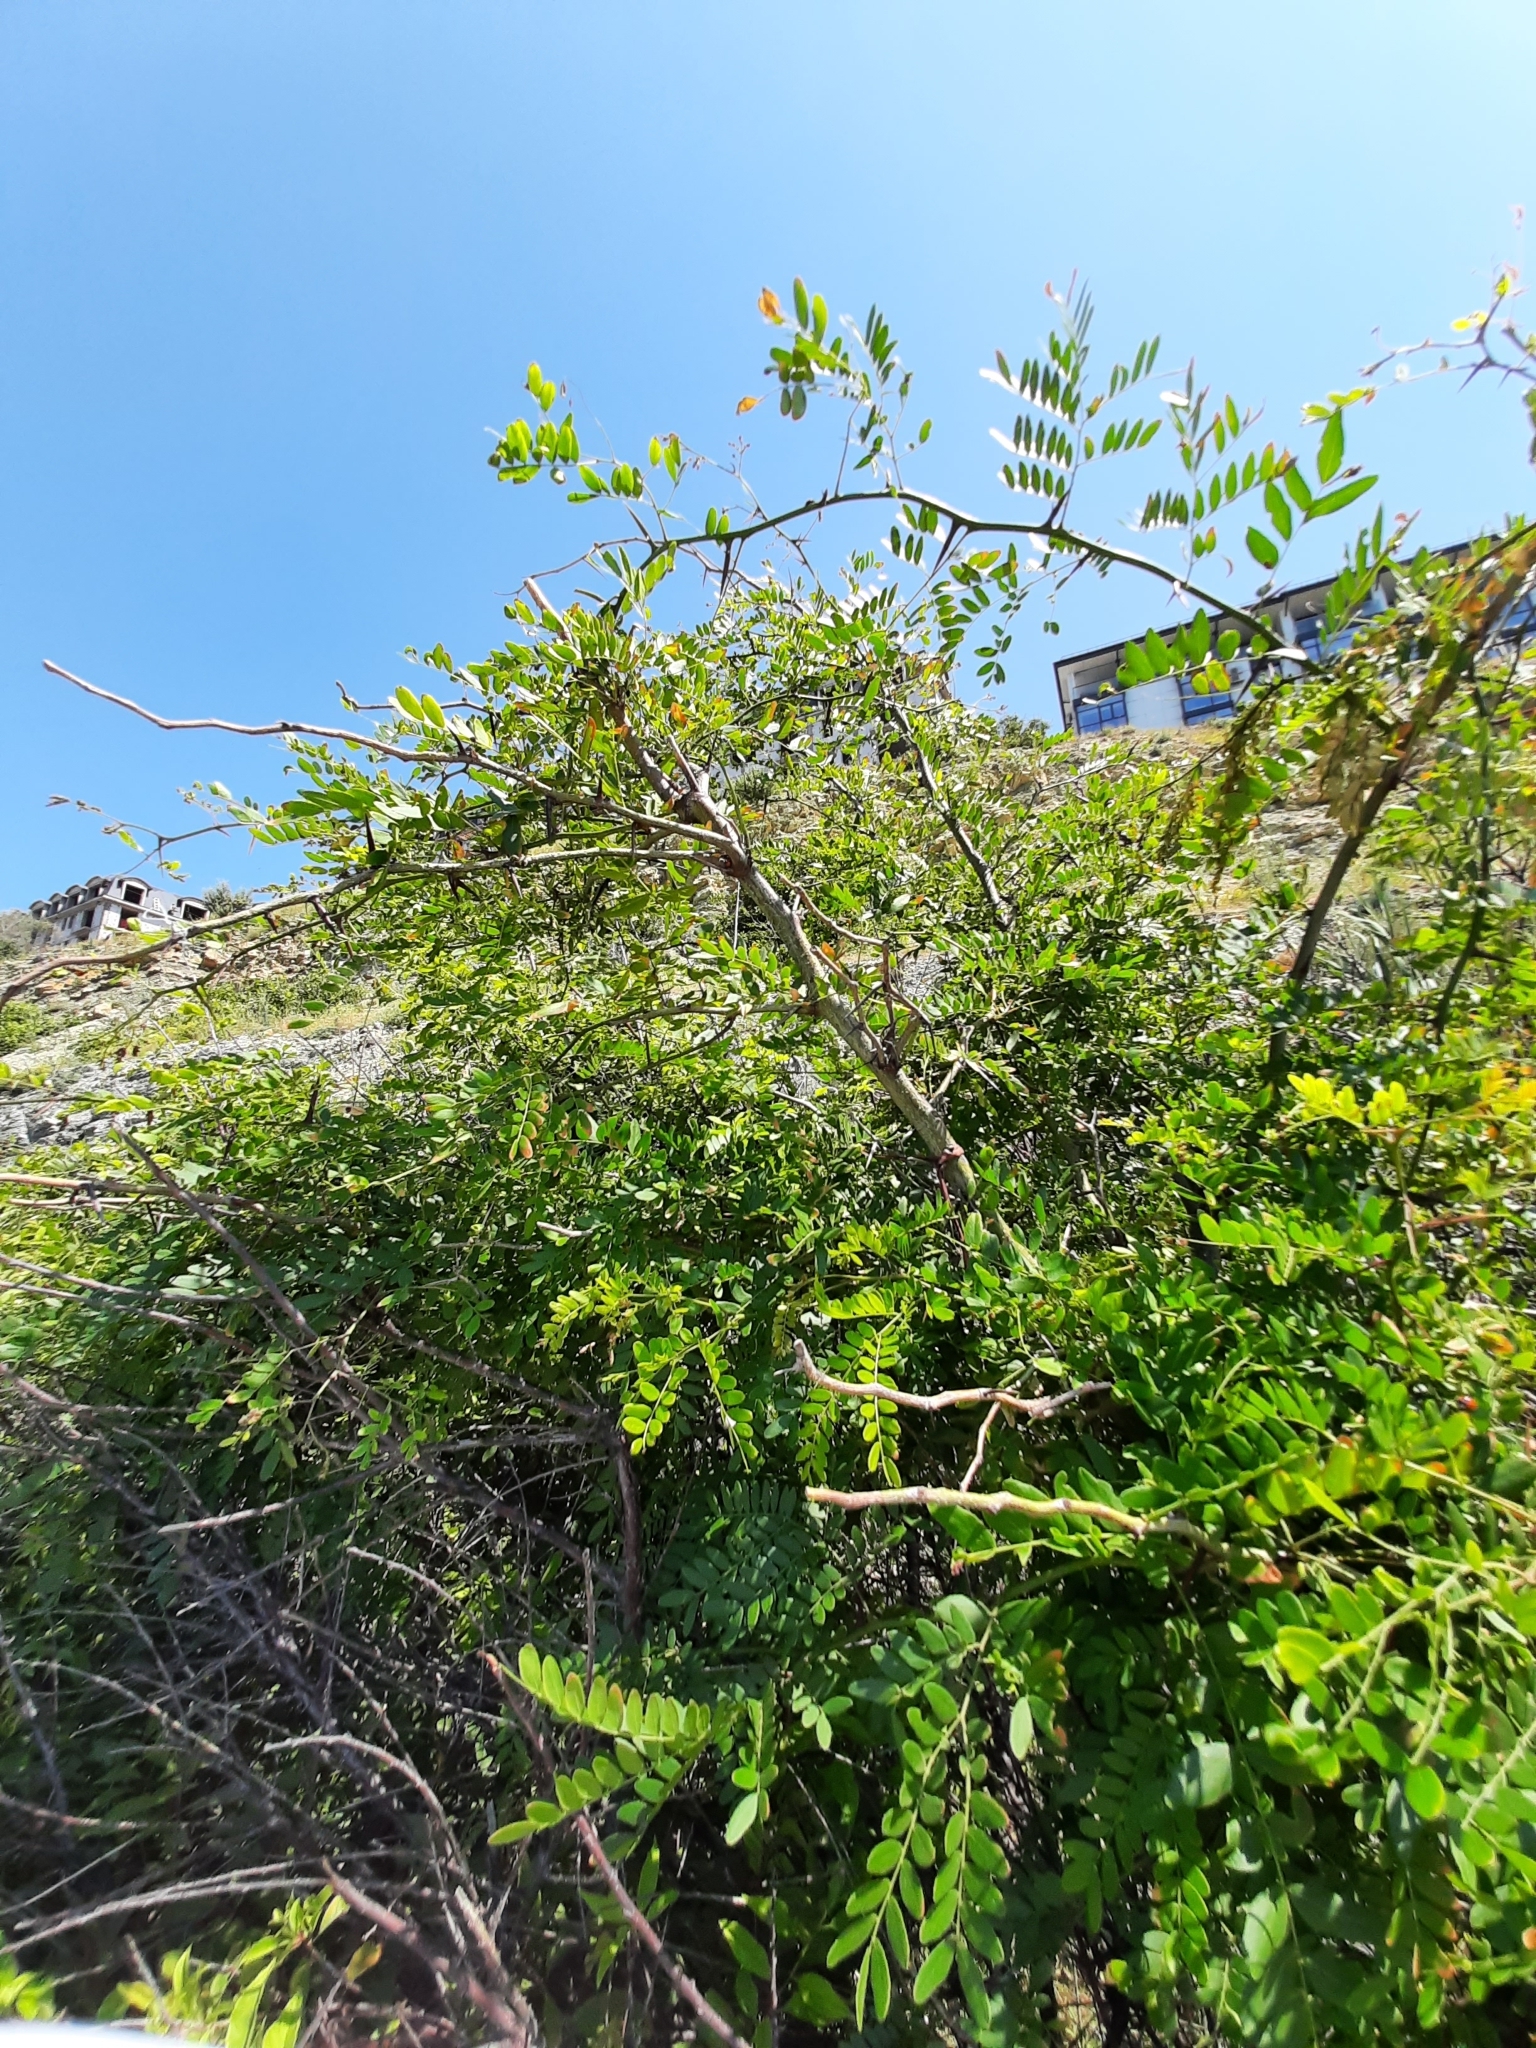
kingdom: Plantae
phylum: Tracheophyta
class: Magnoliopsida
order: Fabales
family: Fabaceae
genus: Gleditsia
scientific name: Gleditsia triacanthos
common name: Common honeylocust
